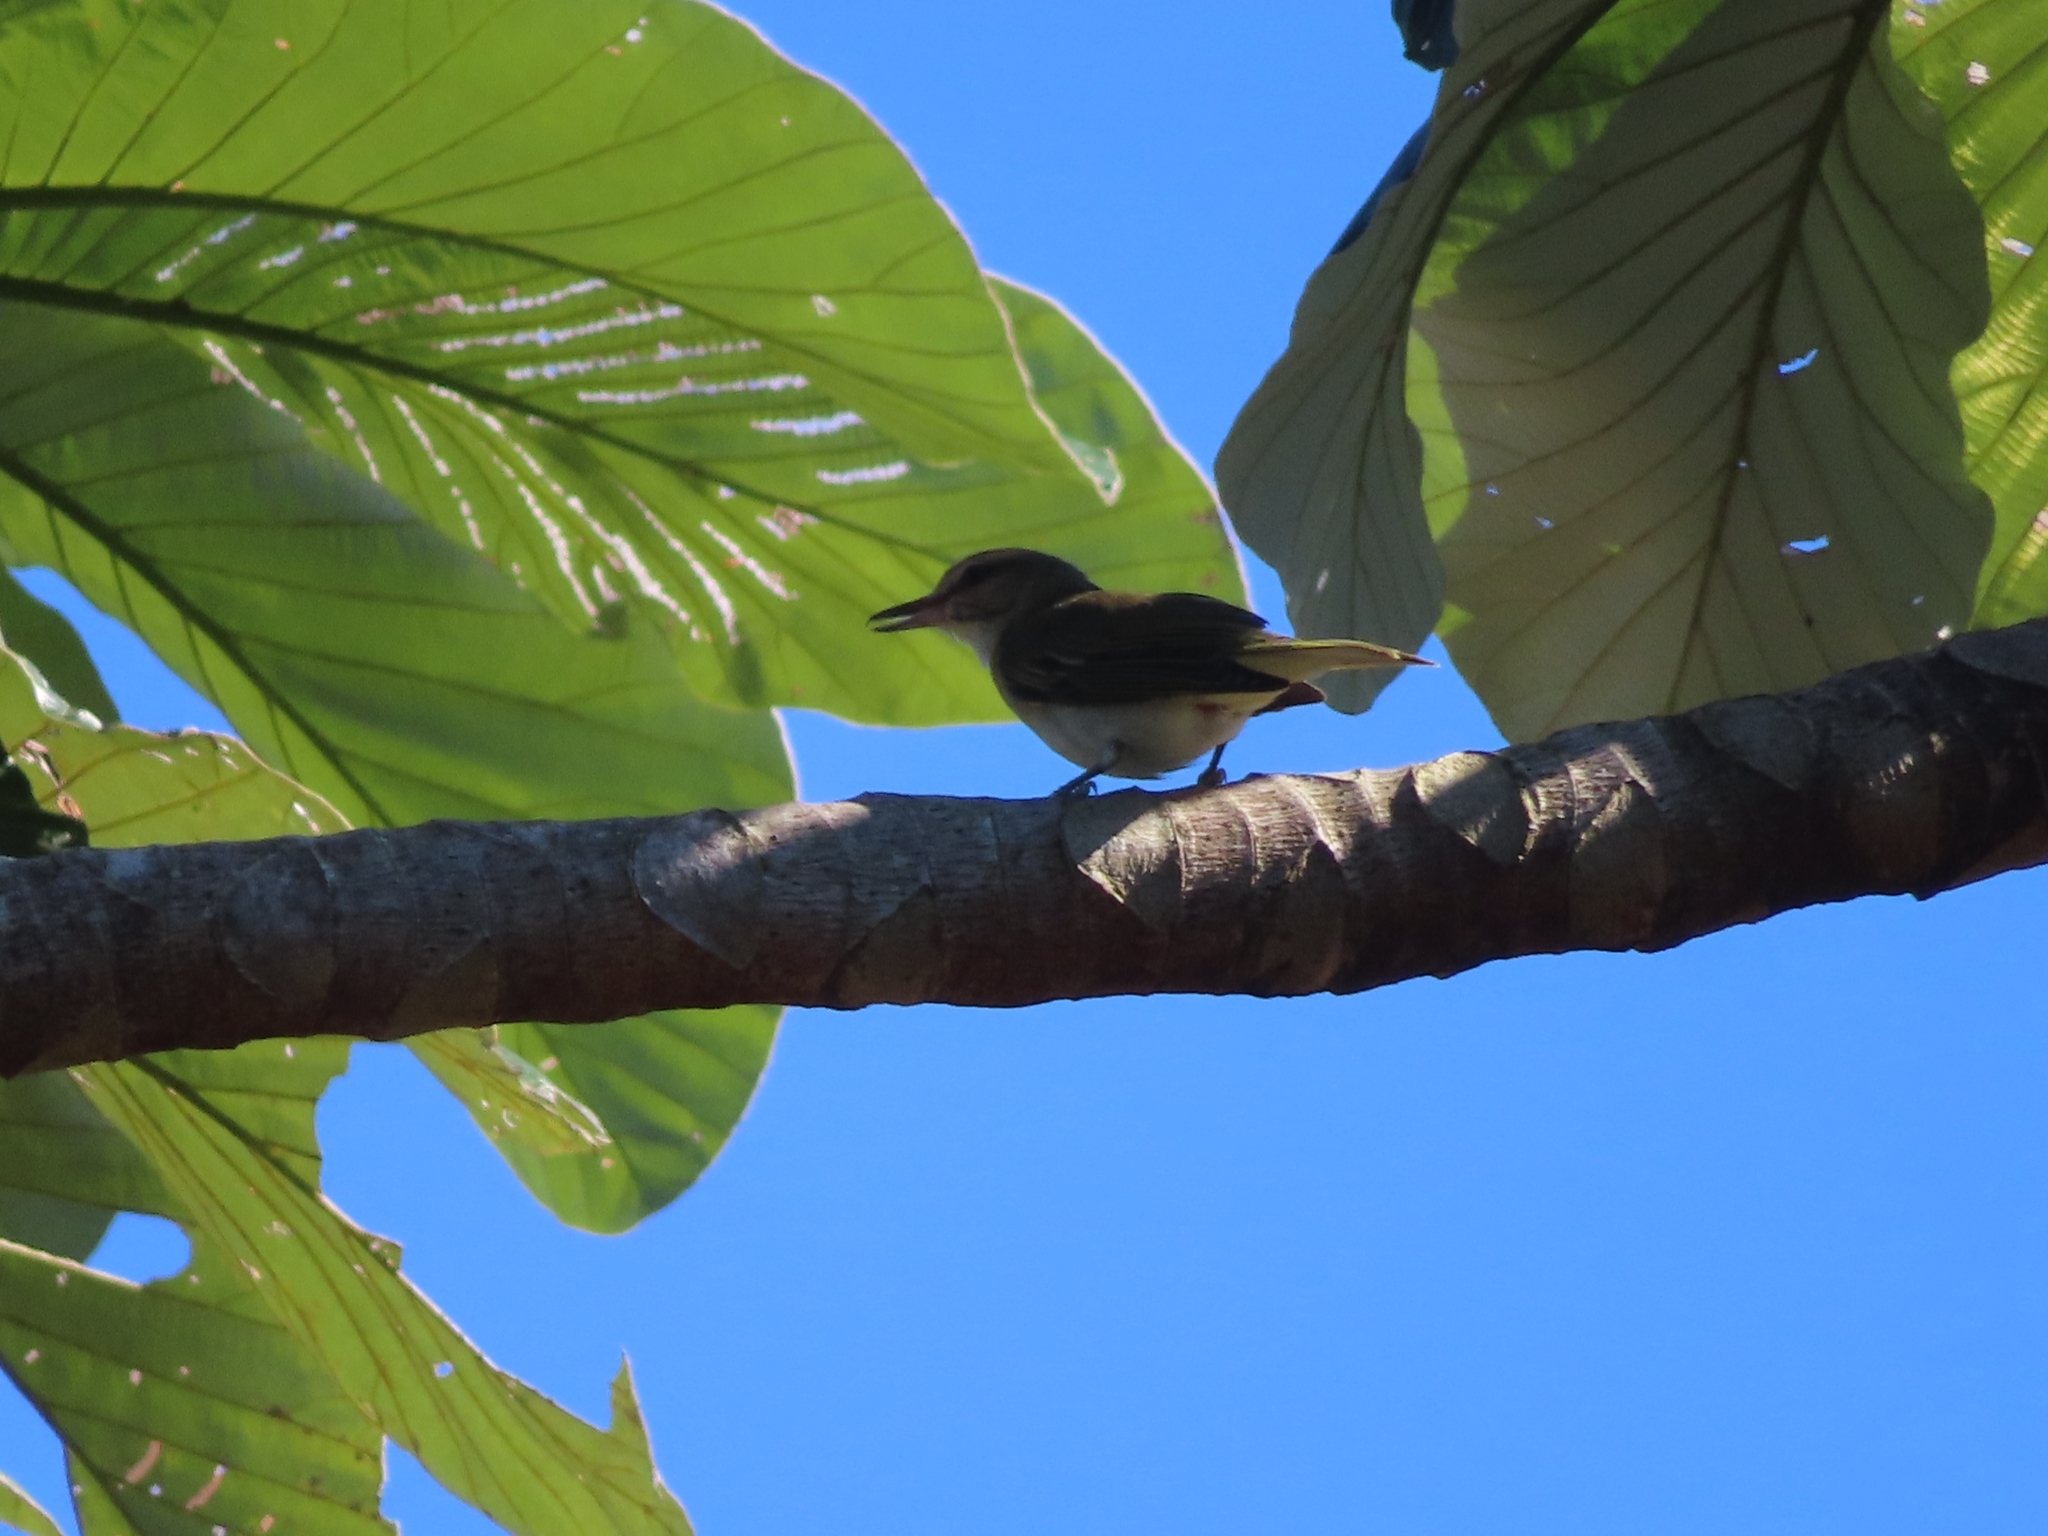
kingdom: Animalia
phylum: Chordata
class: Aves
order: Passeriformes
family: Vireonidae
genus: Vireo
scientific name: Vireo altiloquus
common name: Black-whiskered vireo
